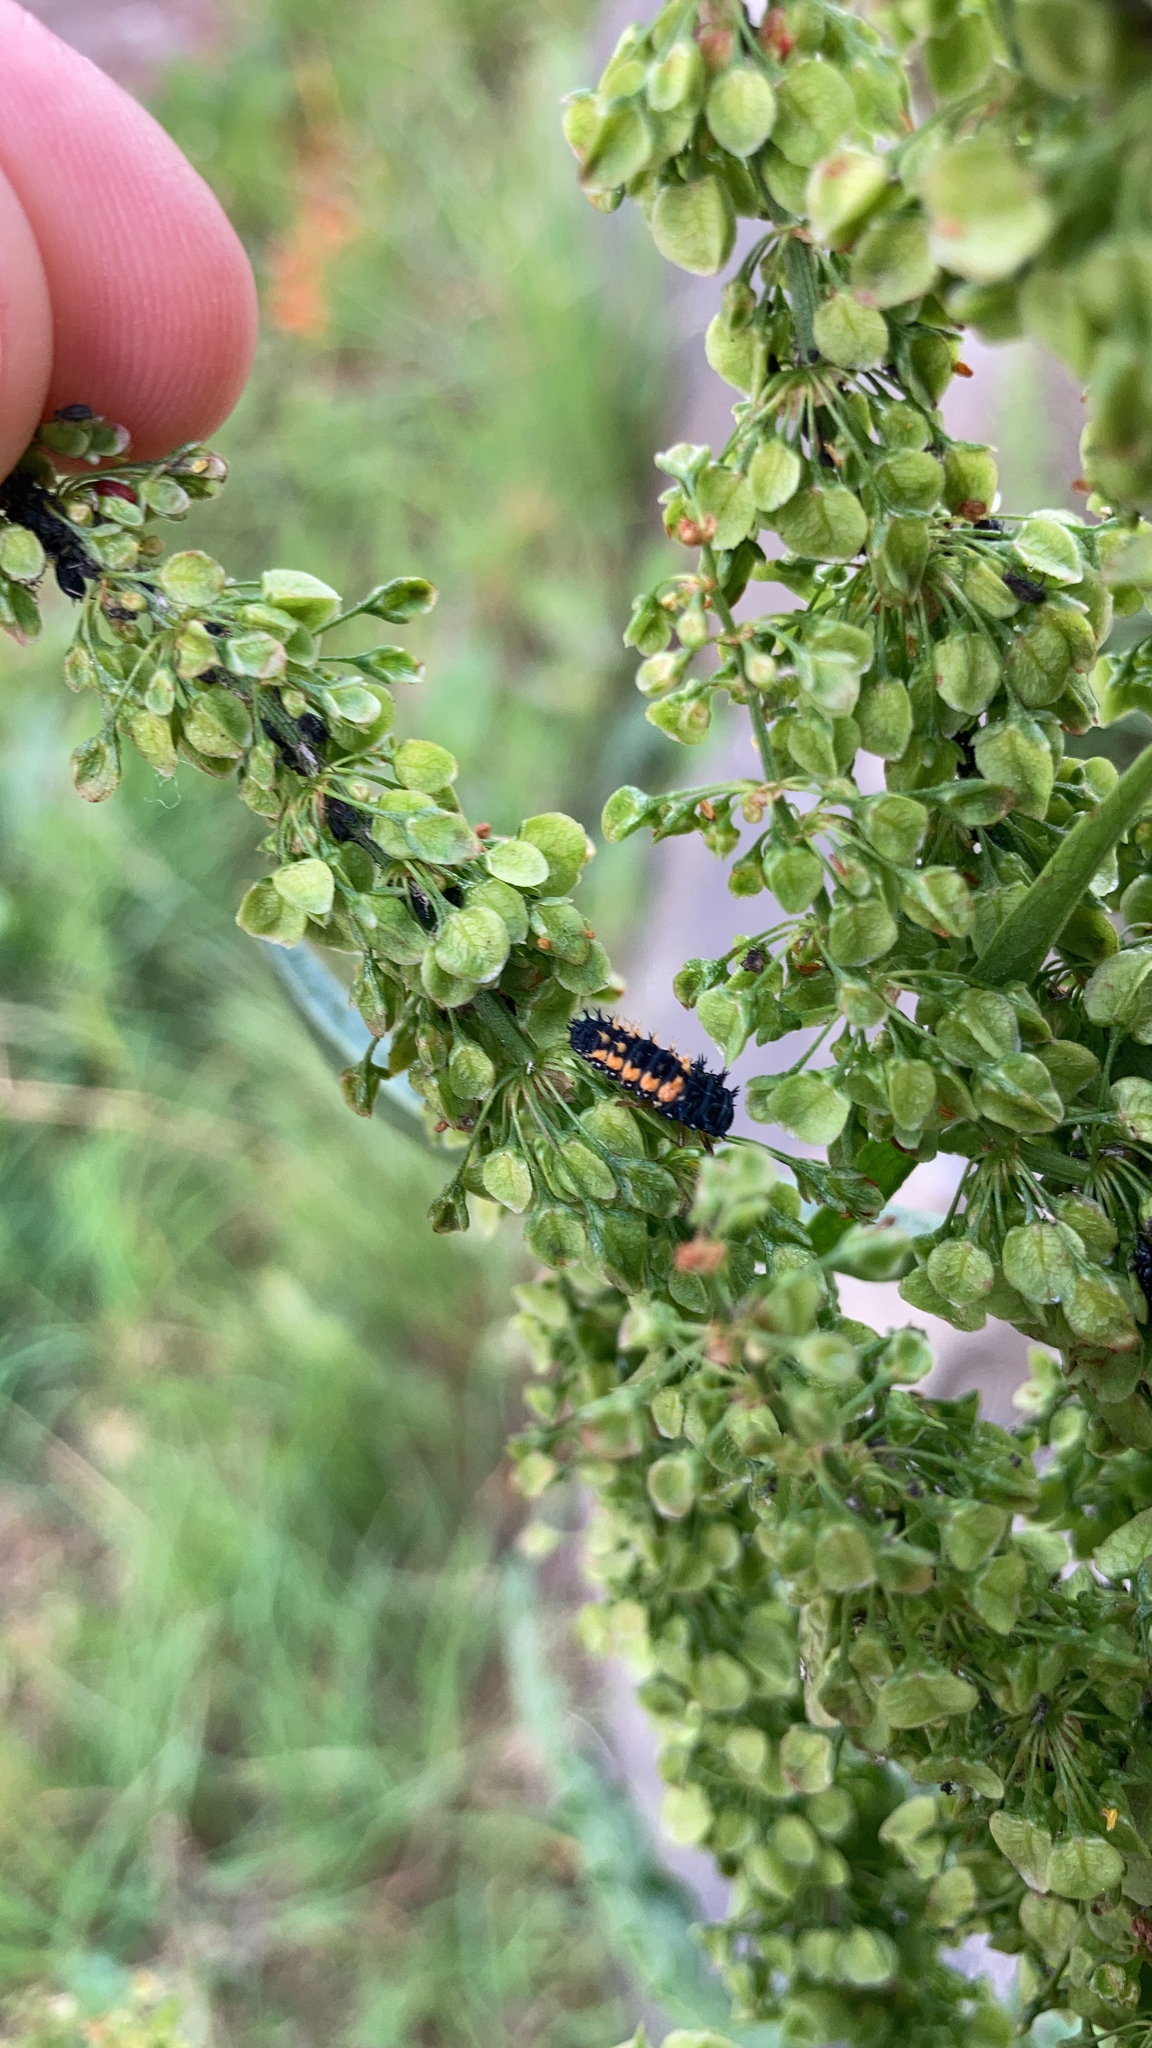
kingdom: Animalia
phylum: Arthropoda
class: Insecta
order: Coleoptera
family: Coccinellidae
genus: Harmonia
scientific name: Harmonia axyridis
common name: Harlequin ladybird
